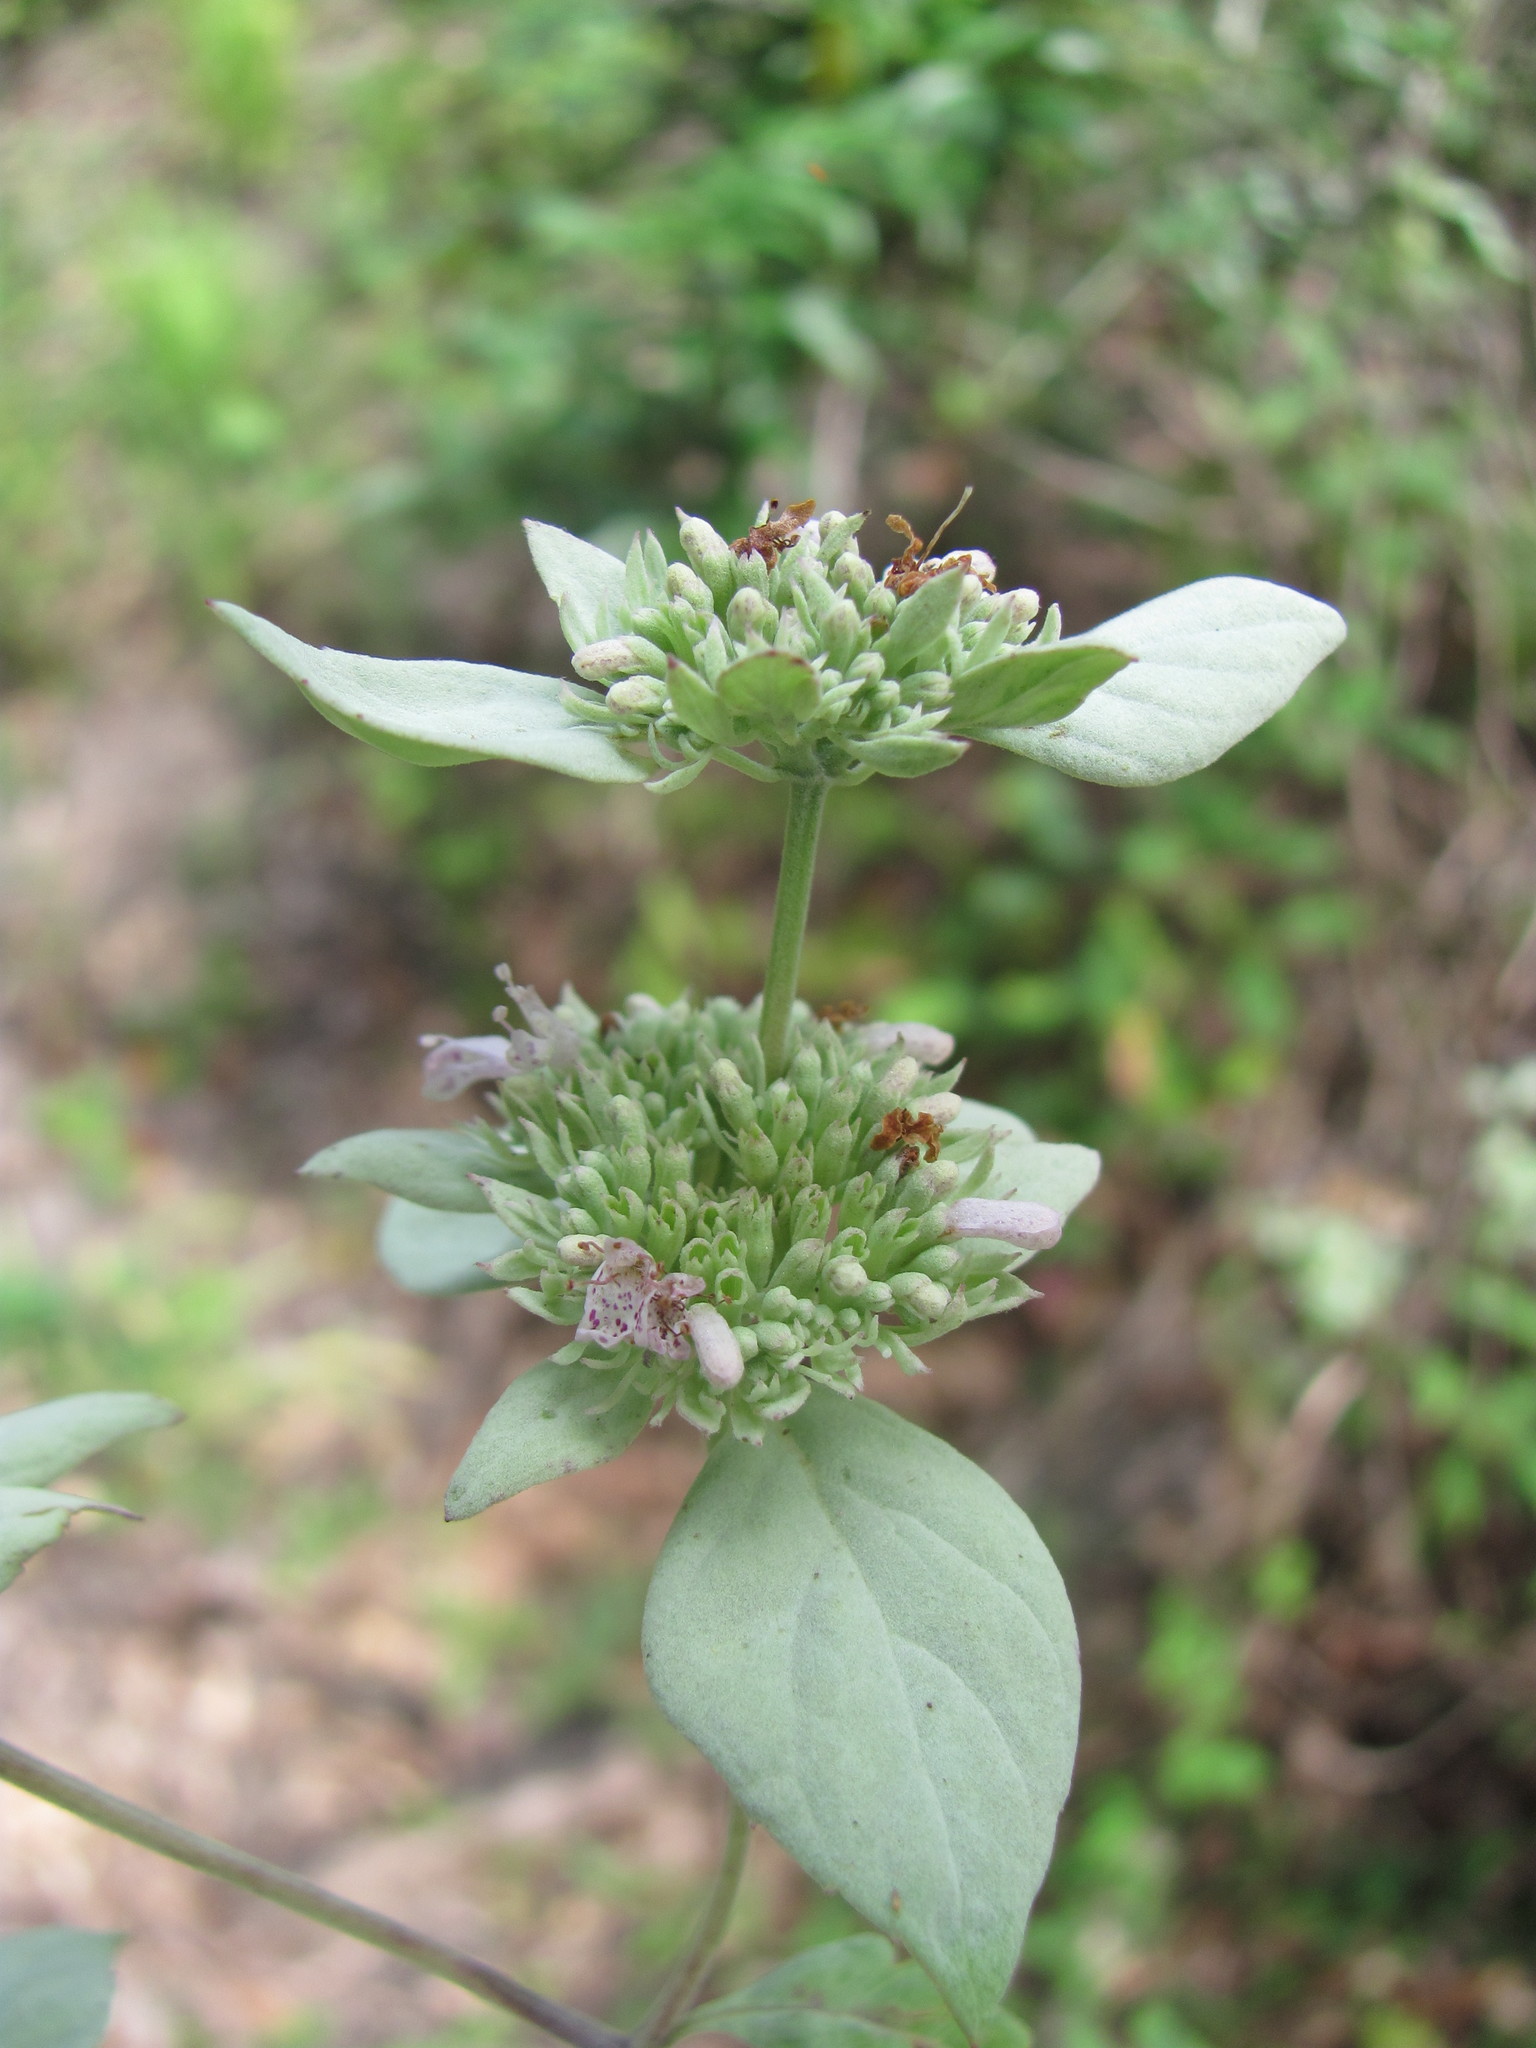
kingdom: Plantae
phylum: Tracheophyta
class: Magnoliopsida
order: Lamiales
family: Lamiaceae
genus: Pycnanthemum
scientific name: Pycnanthemum albescens
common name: White-leaf mountain-mint
